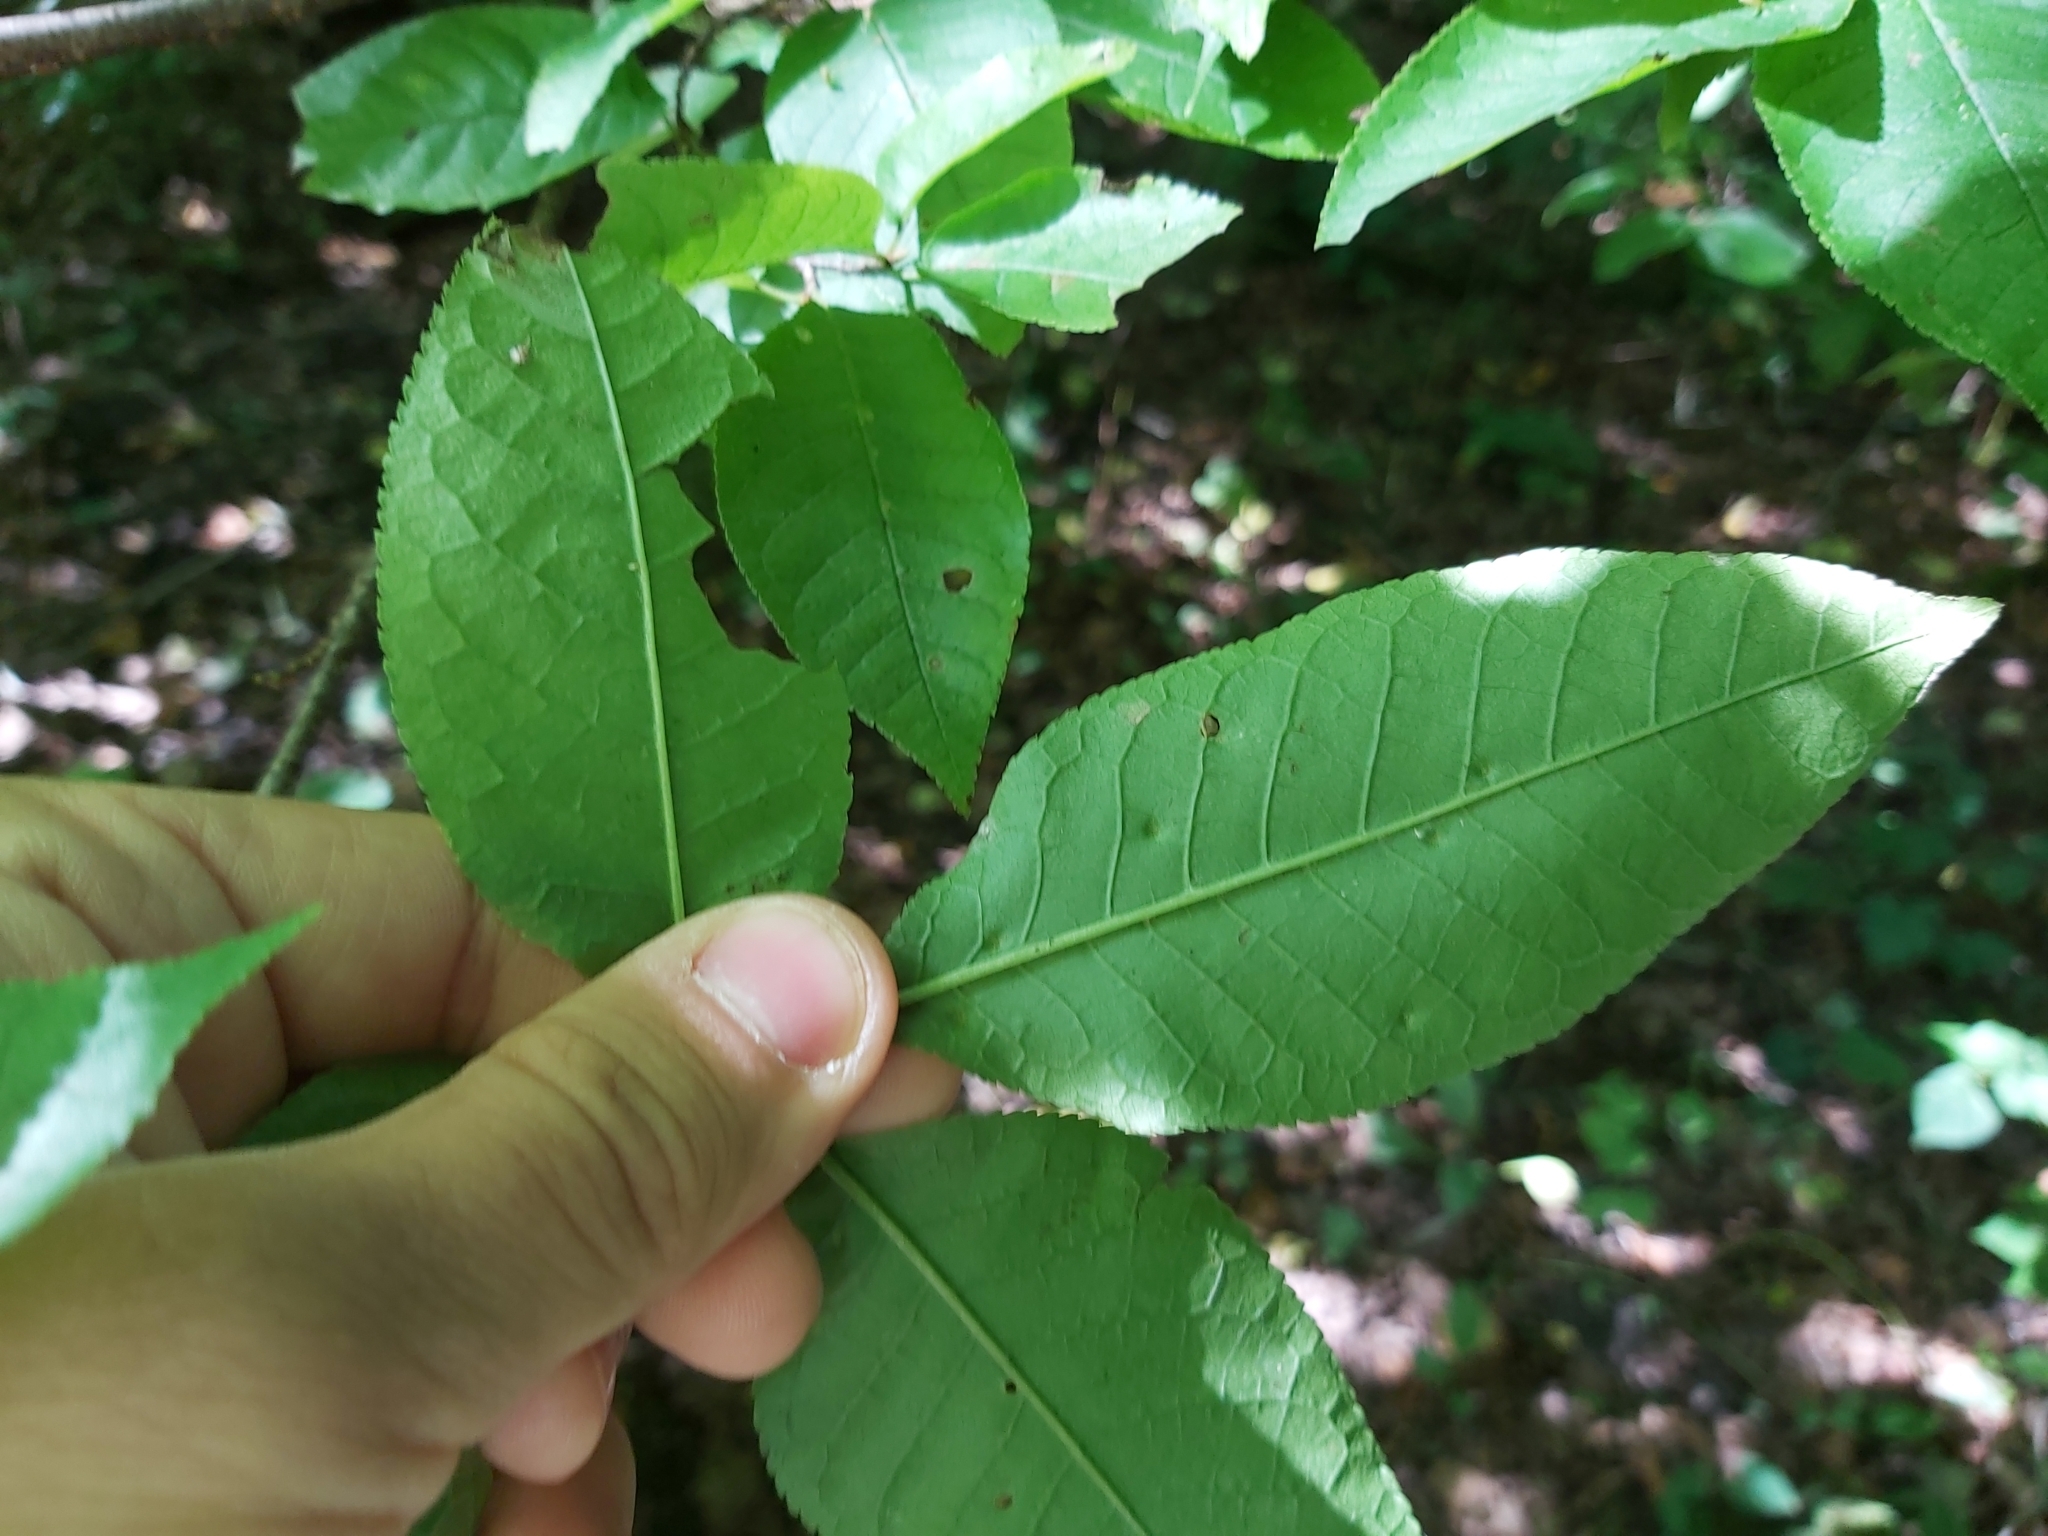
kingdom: Animalia
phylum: Arthropoda
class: Arachnida
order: Trombidiformes
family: Eriophyidae
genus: Phyllocoptes
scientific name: Phyllocoptes eupadi
